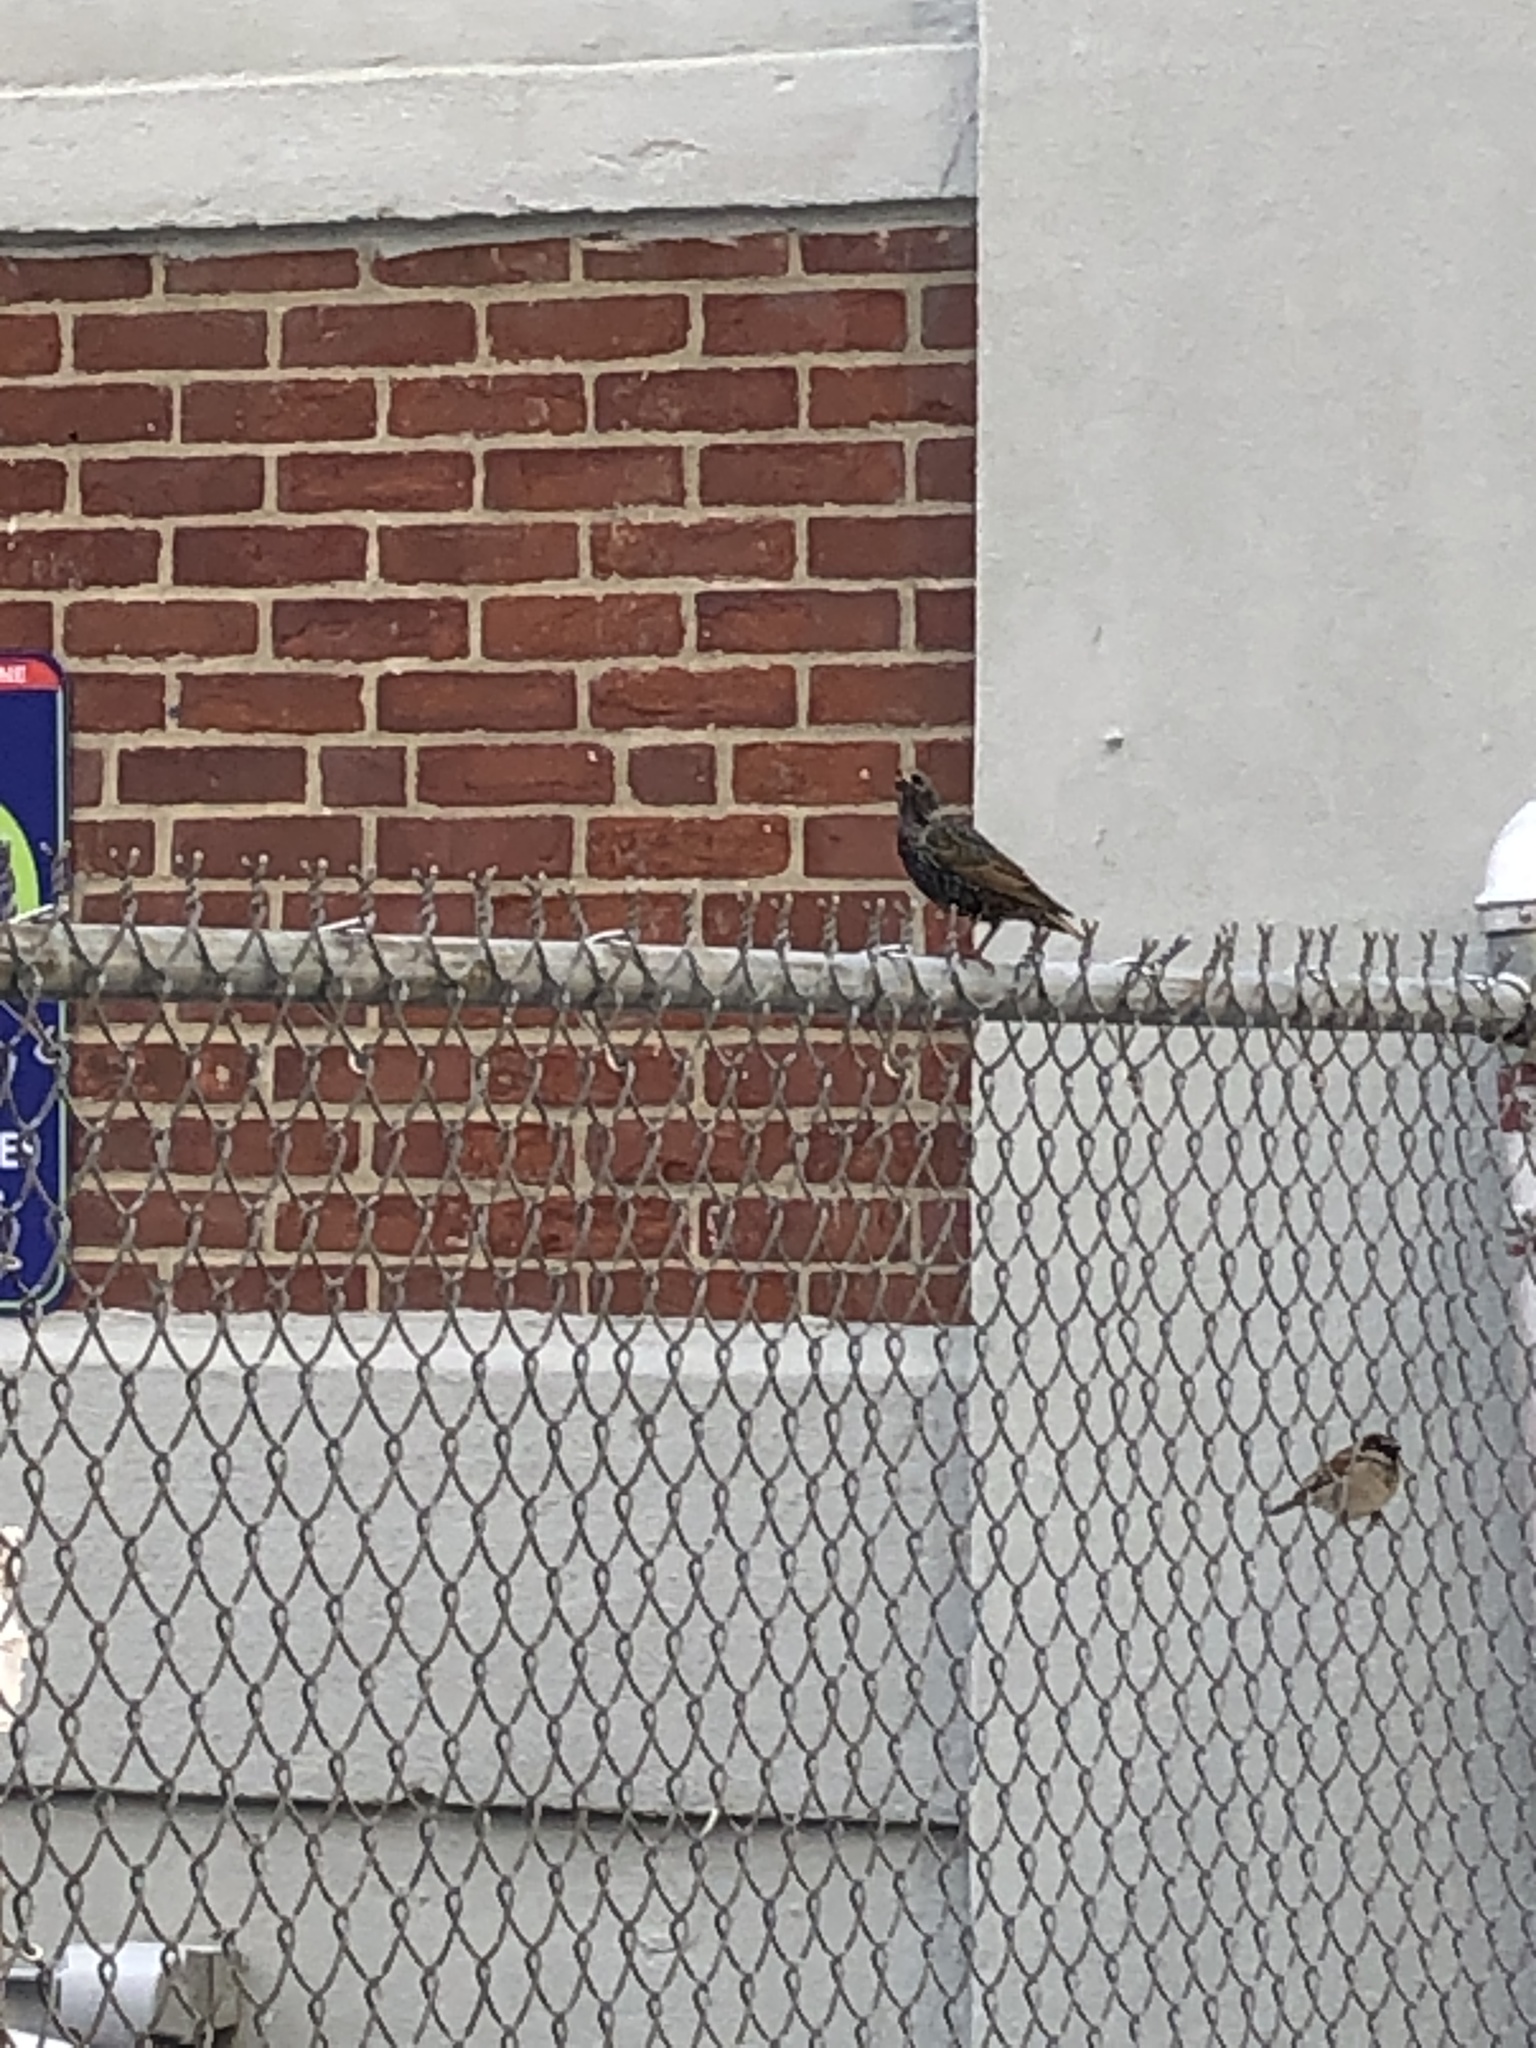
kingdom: Animalia
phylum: Chordata
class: Aves
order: Passeriformes
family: Sturnidae
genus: Sturnus
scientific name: Sturnus vulgaris
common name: Common starling
